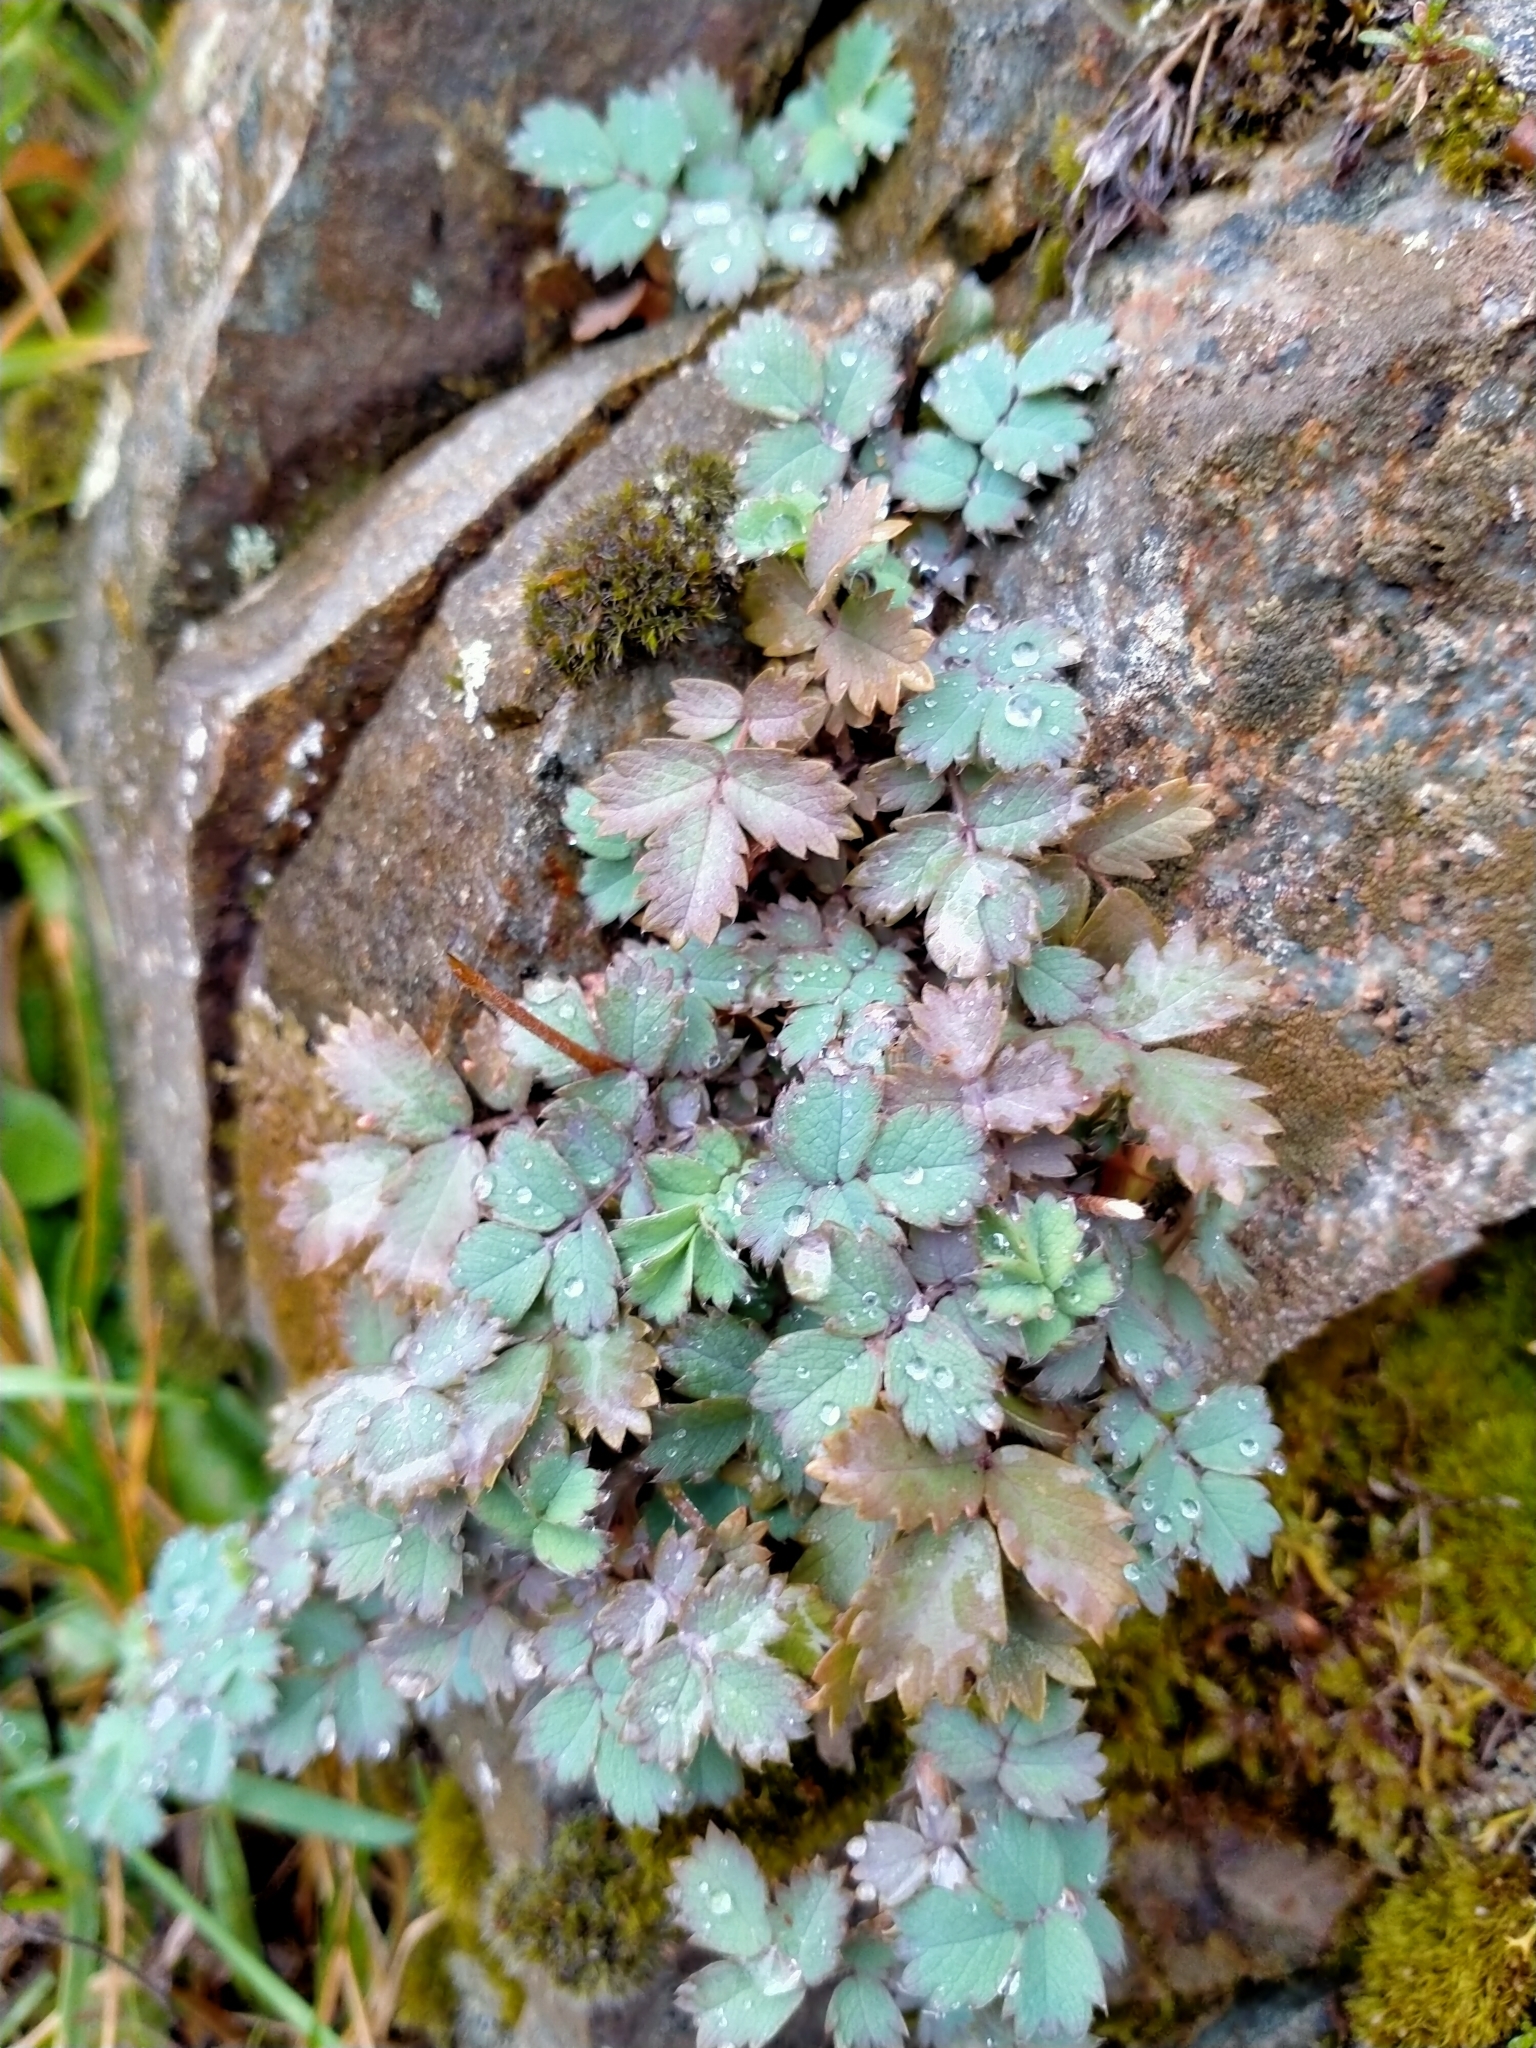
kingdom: Plantae
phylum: Tracheophyta
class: Magnoliopsida
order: Rosales
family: Rosaceae
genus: Acaena
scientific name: Acaena caesiiglauca
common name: Glaucous pirri-pirri-bur
